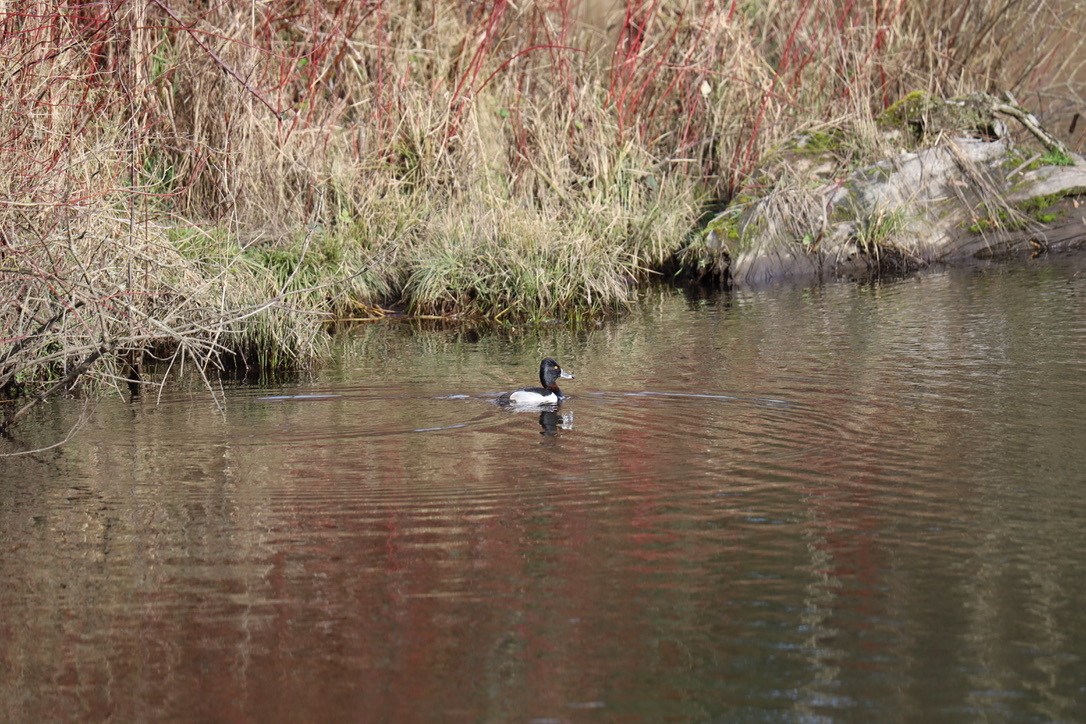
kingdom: Animalia
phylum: Chordata
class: Aves
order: Anseriformes
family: Anatidae
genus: Aythya
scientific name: Aythya collaris
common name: Ring-necked duck
